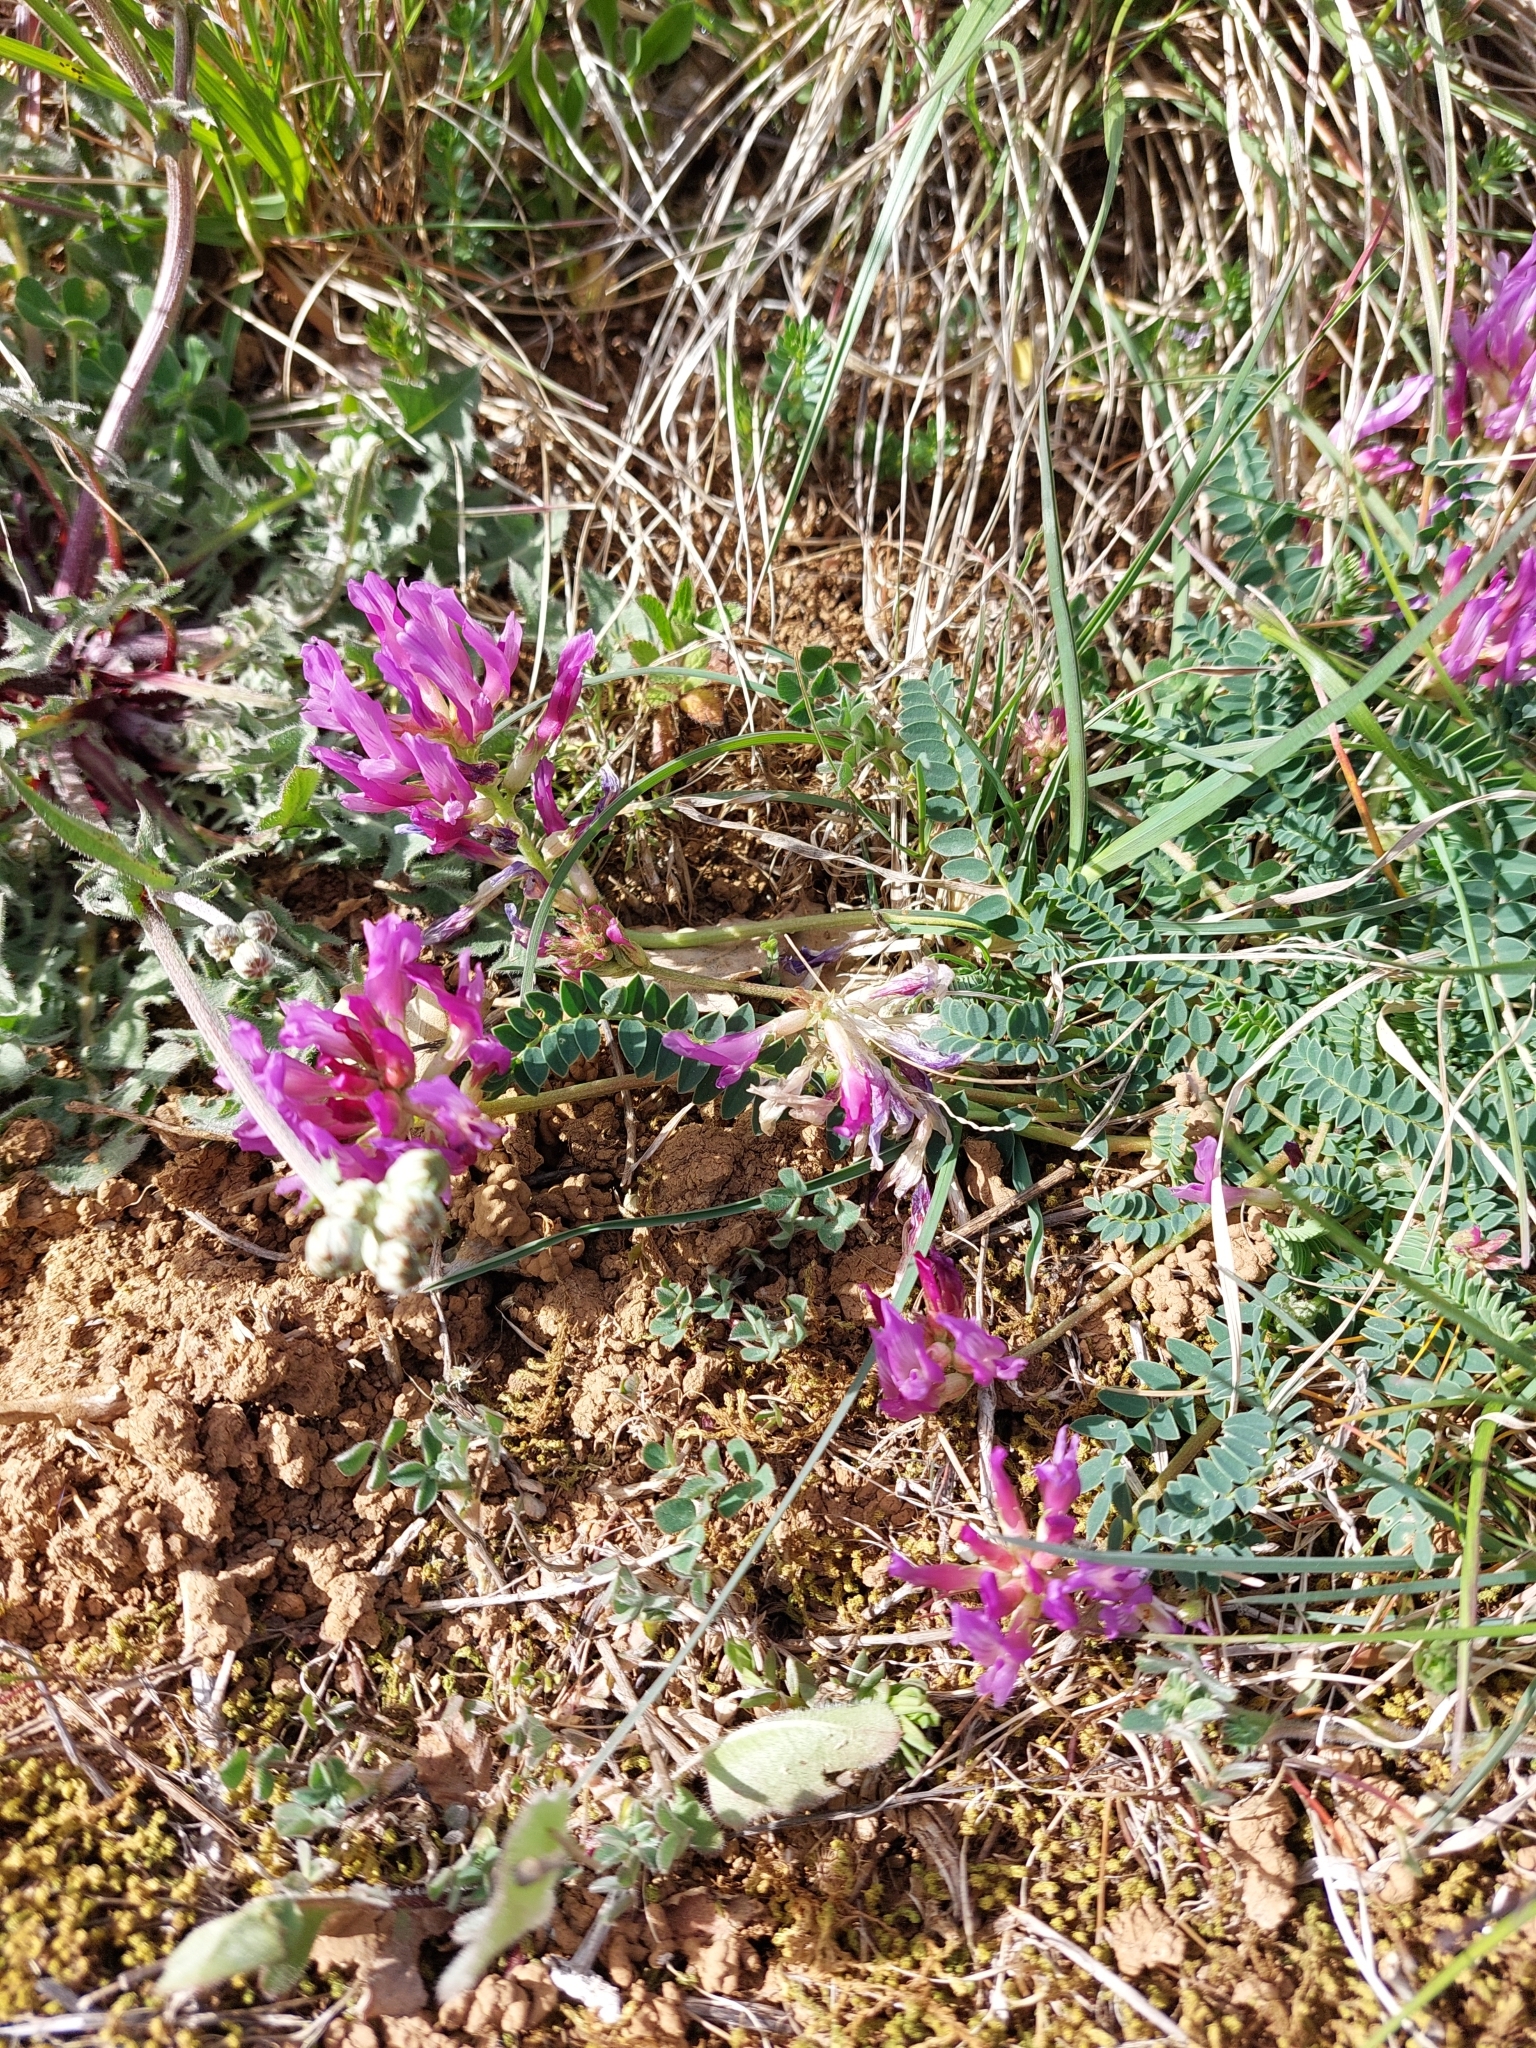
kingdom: Plantae
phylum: Tracheophyta
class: Magnoliopsida
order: Fabales
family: Fabaceae
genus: Astragalus
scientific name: Astragalus monspessulanus
